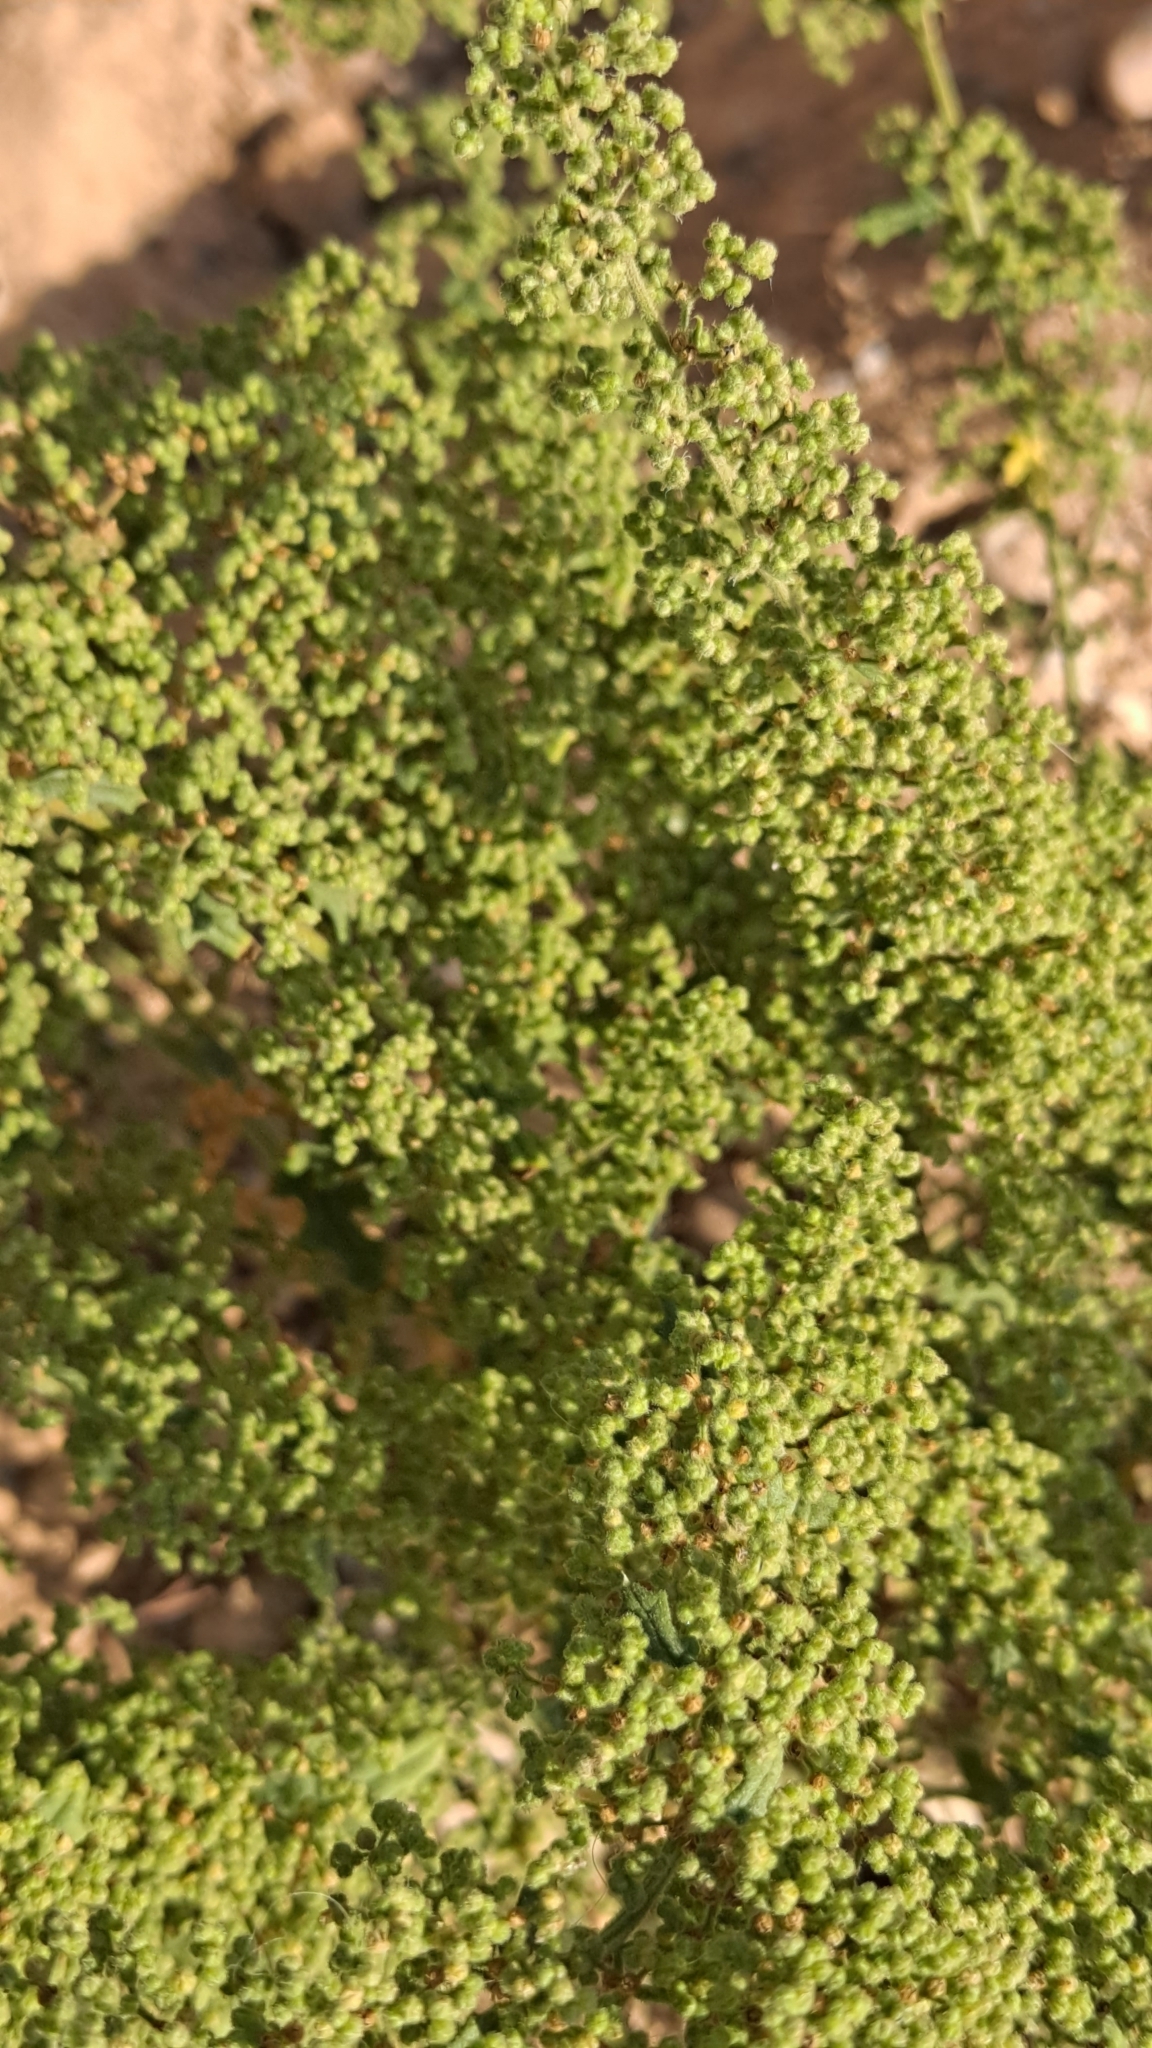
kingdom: Plantae
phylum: Tracheophyta
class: Magnoliopsida
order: Caryophyllales
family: Amaranthaceae
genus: Dysphania
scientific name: Dysphania botrys
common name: Feather-geranium
